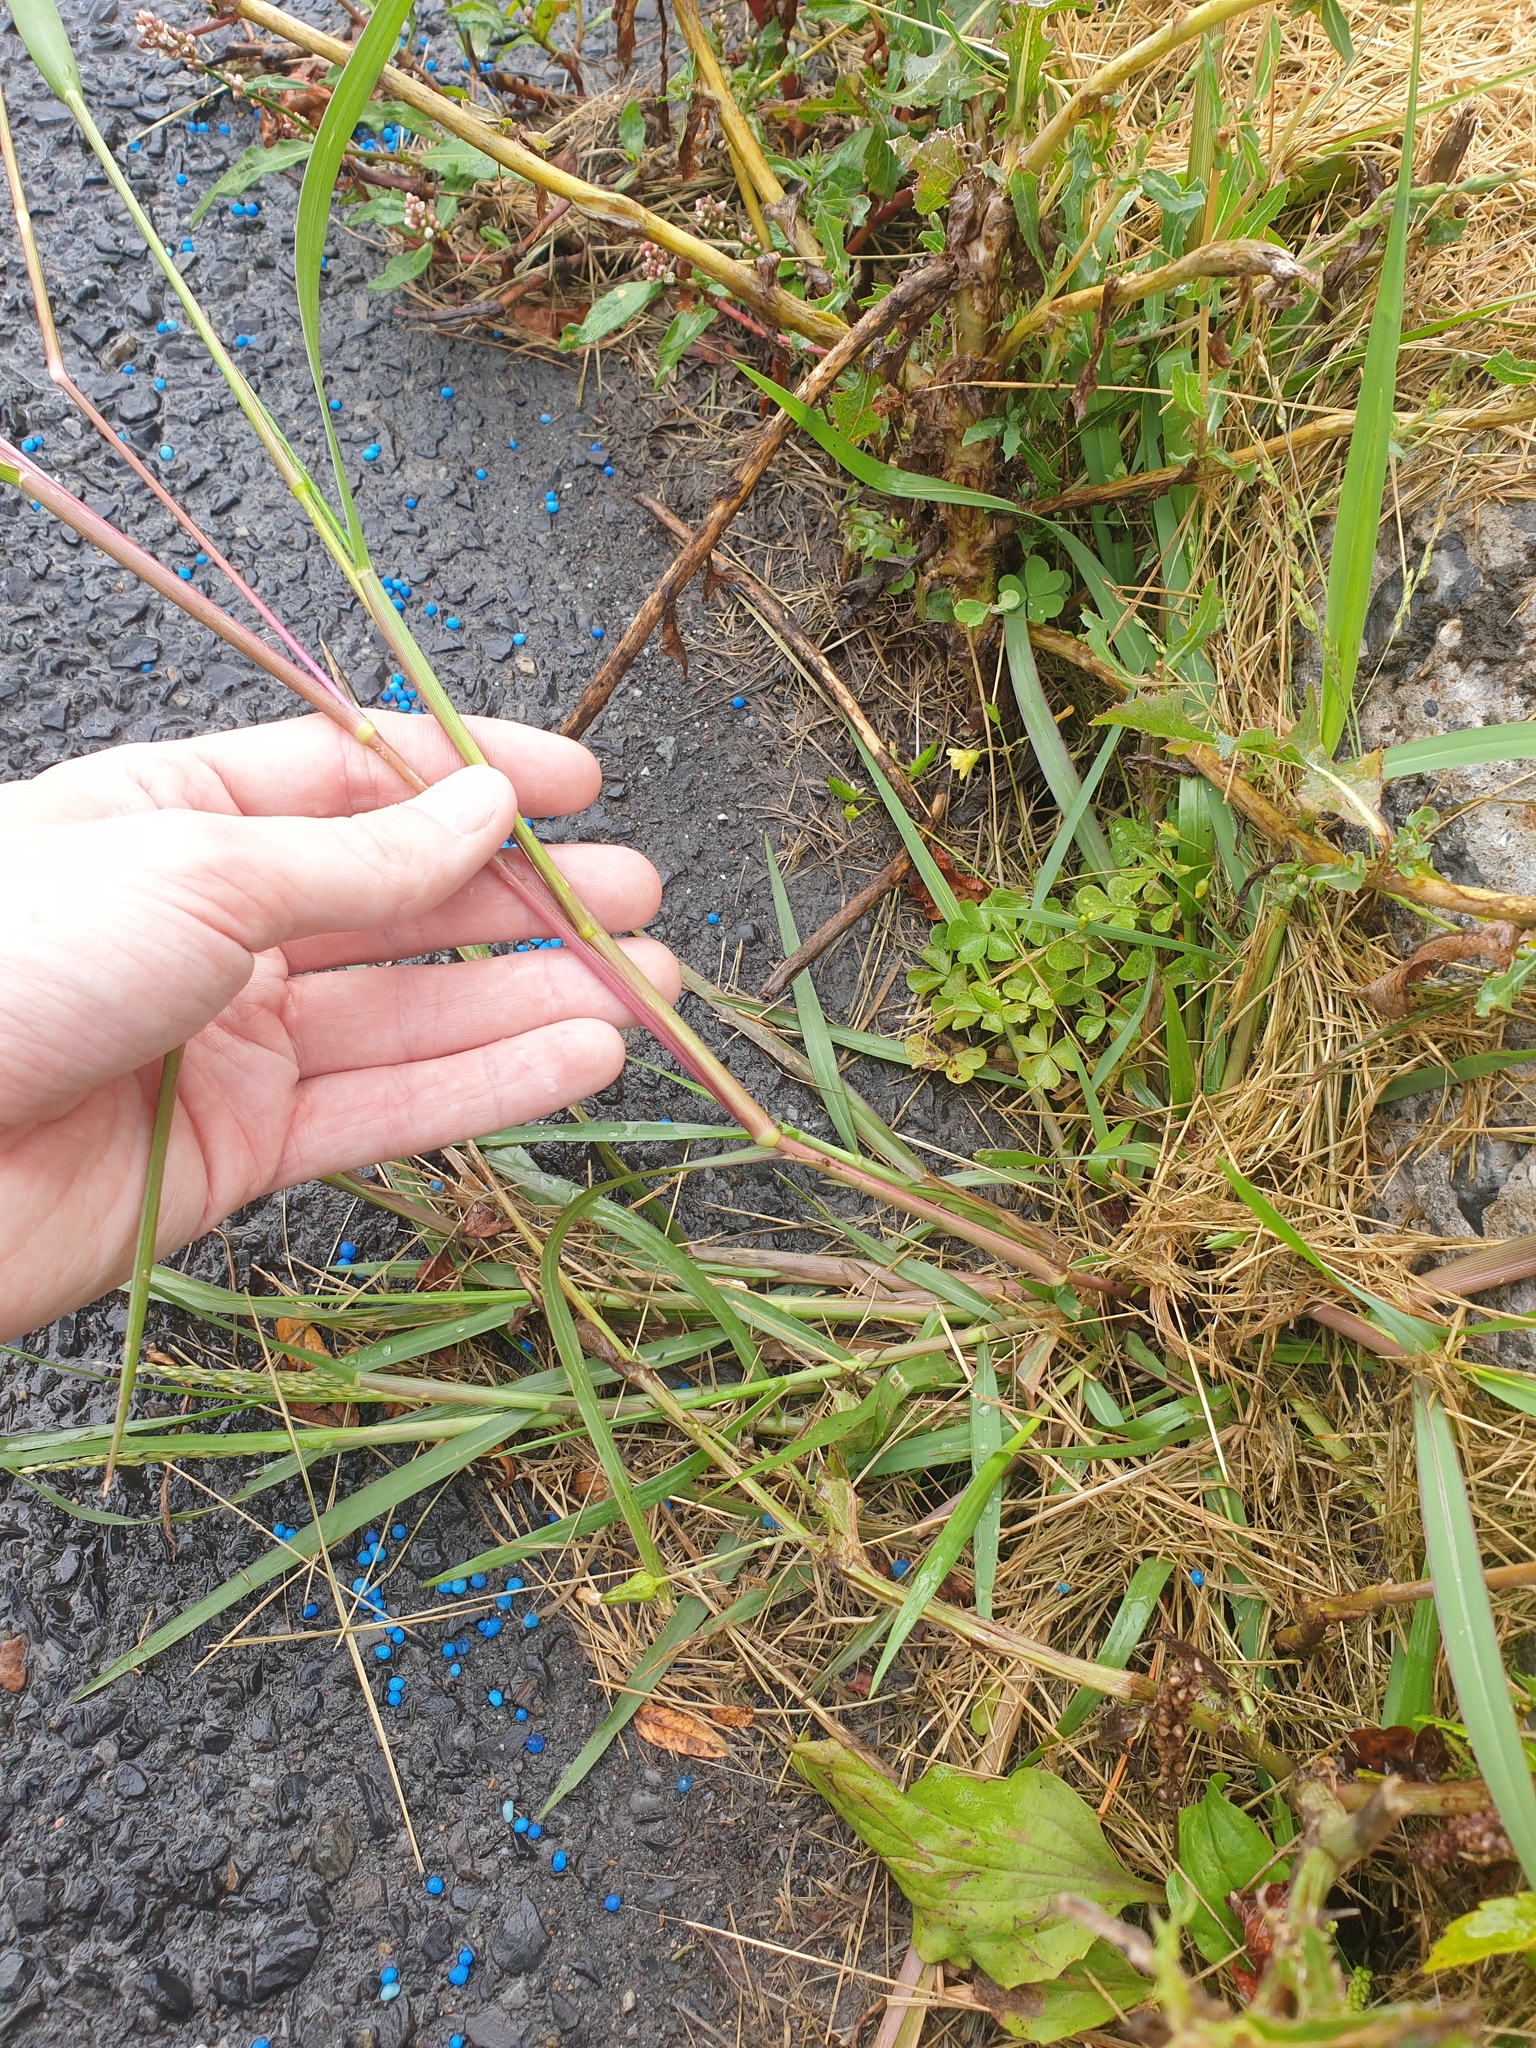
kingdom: Plantae
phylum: Tracheophyta
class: Liliopsida
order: Poales
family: Poaceae
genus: Panicum
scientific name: Panicum dichotomiflorum
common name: Autumn millet
